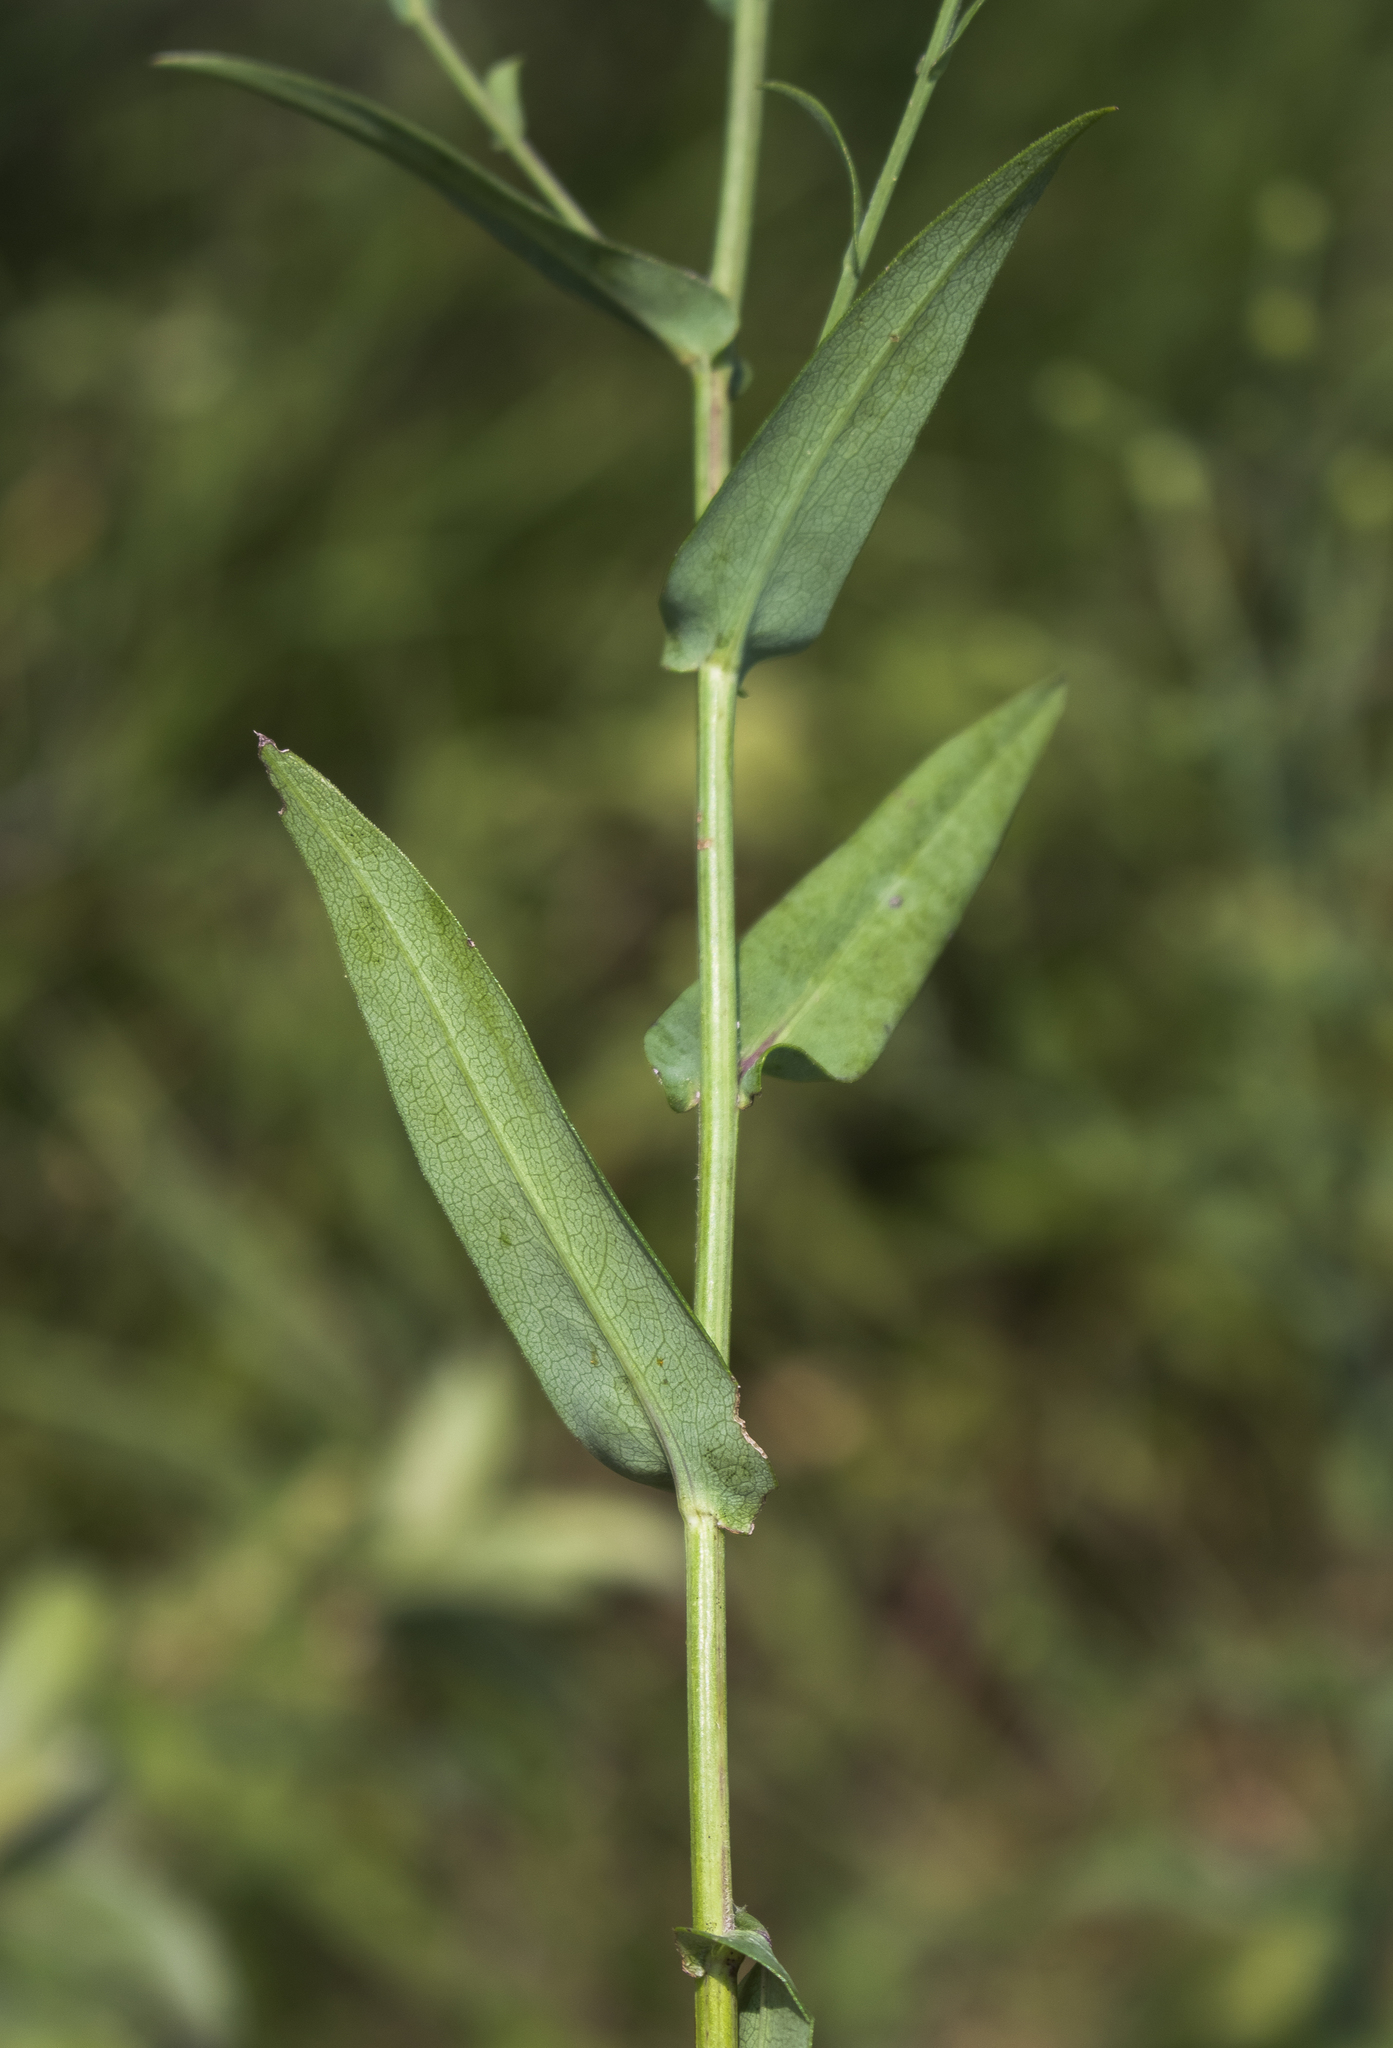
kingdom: Plantae
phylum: Tracheophyta
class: Magnoliopsida
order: Asterales
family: Asteraceae
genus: Symphyotrichum
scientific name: Symphyotrichum laeve
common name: Glaucous aster
